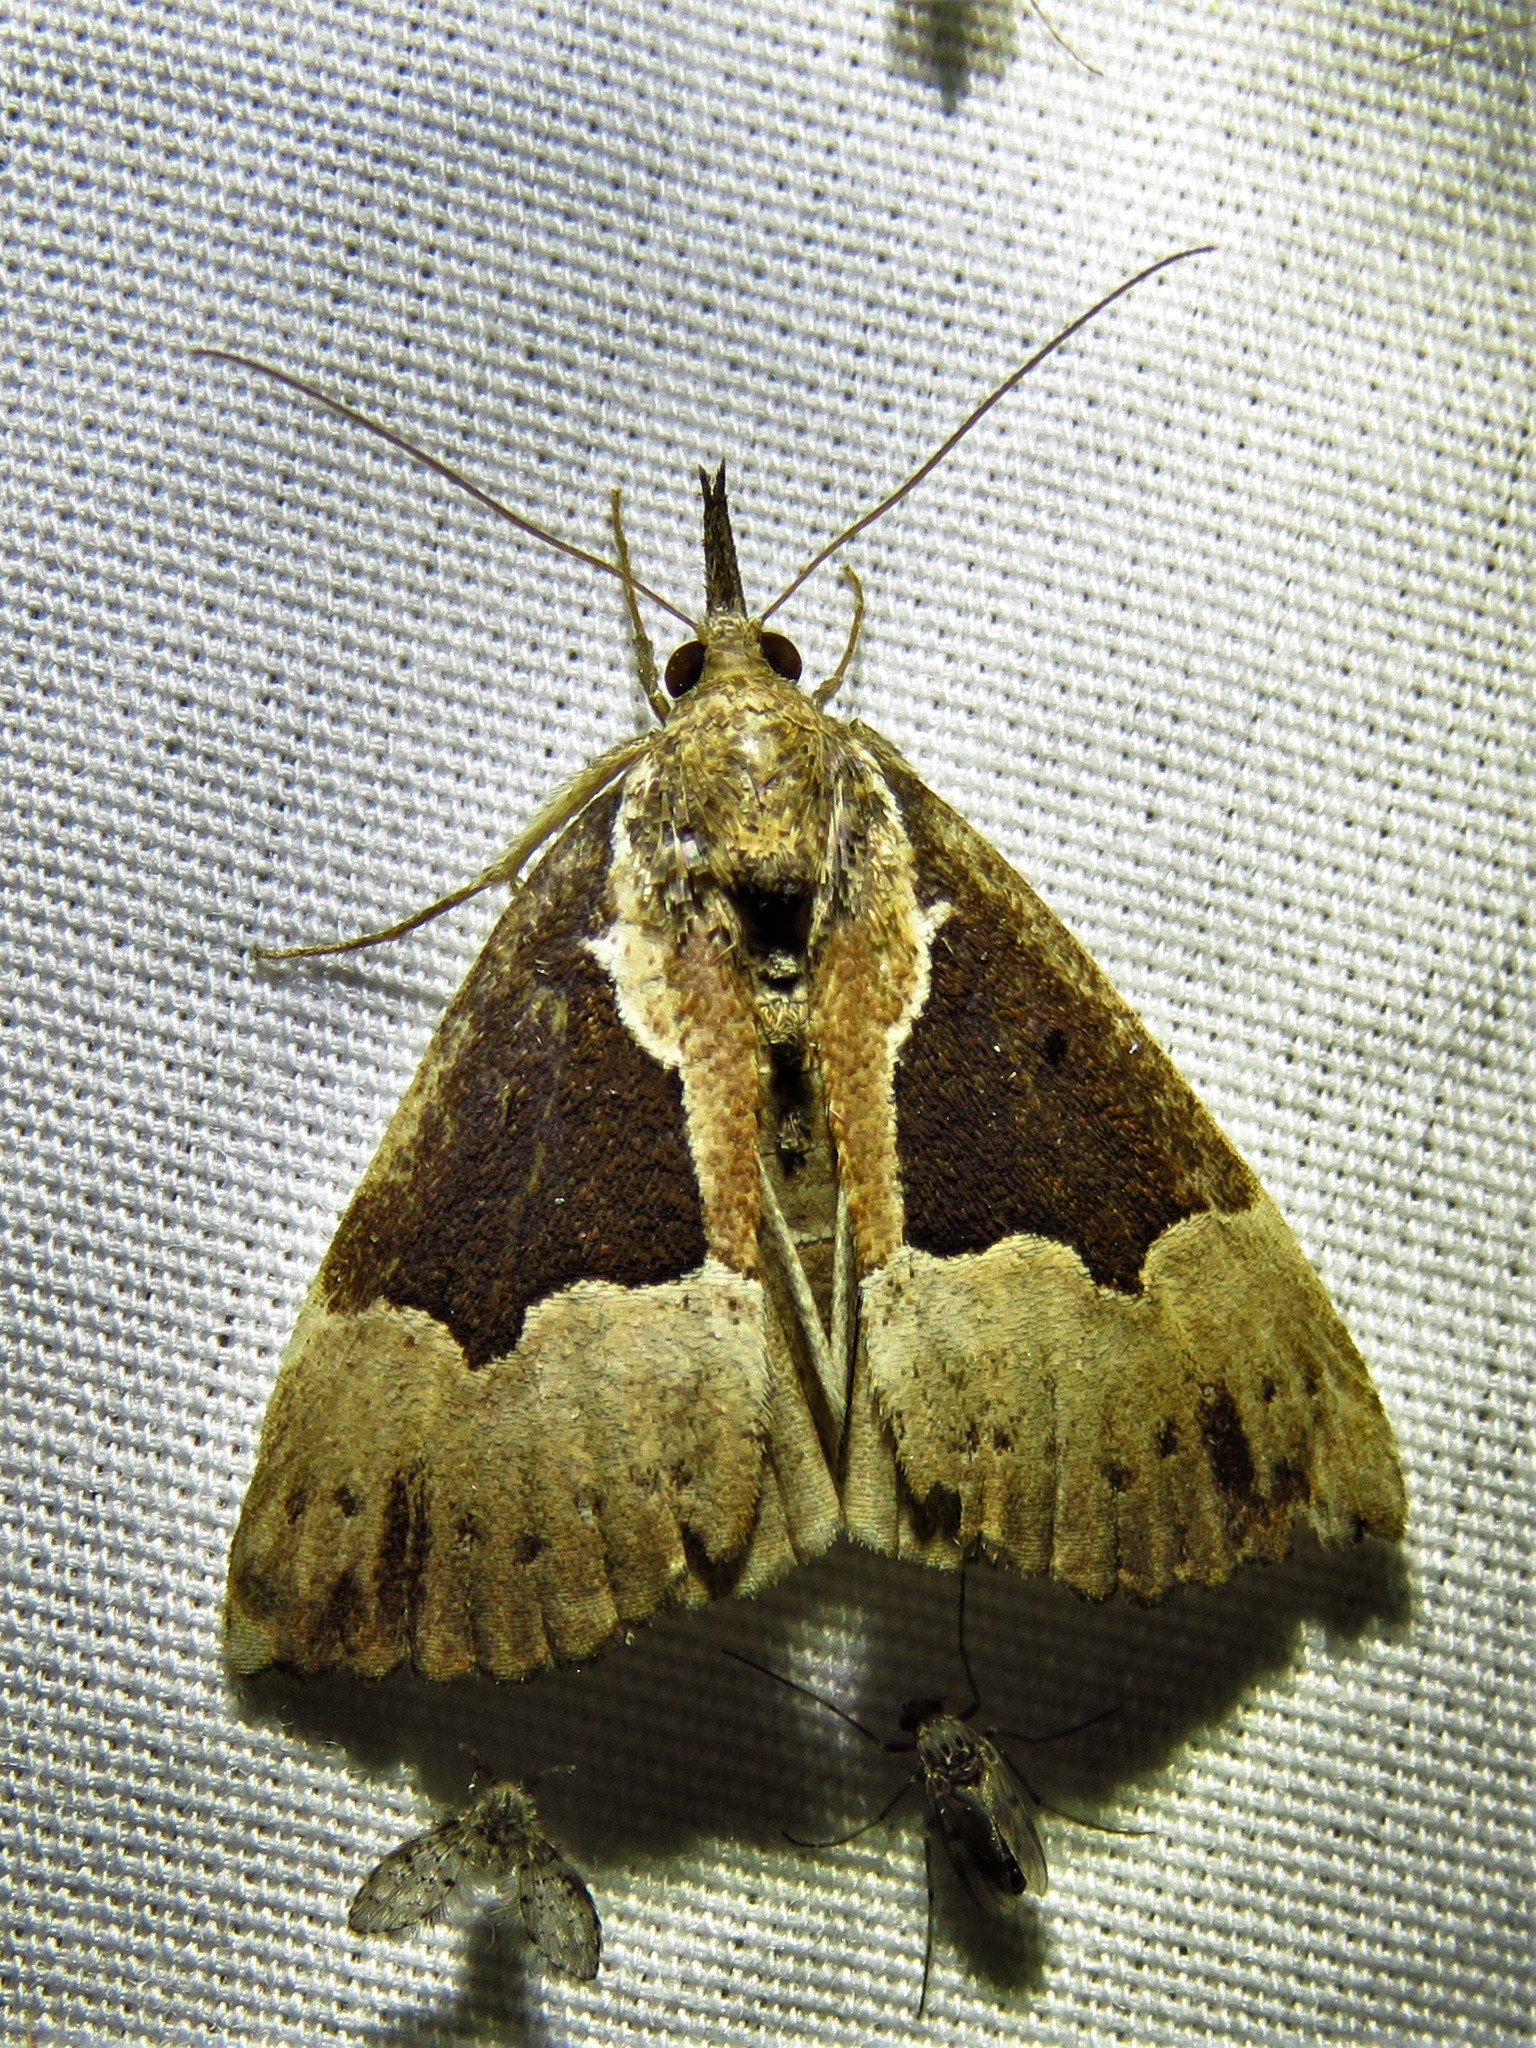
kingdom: Animalia
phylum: Arthropoda
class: Insecta
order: Lepidoptera
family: Erebidae
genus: Hypena
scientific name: Hypena bijugalis
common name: Dimorphic bomolocha moth
